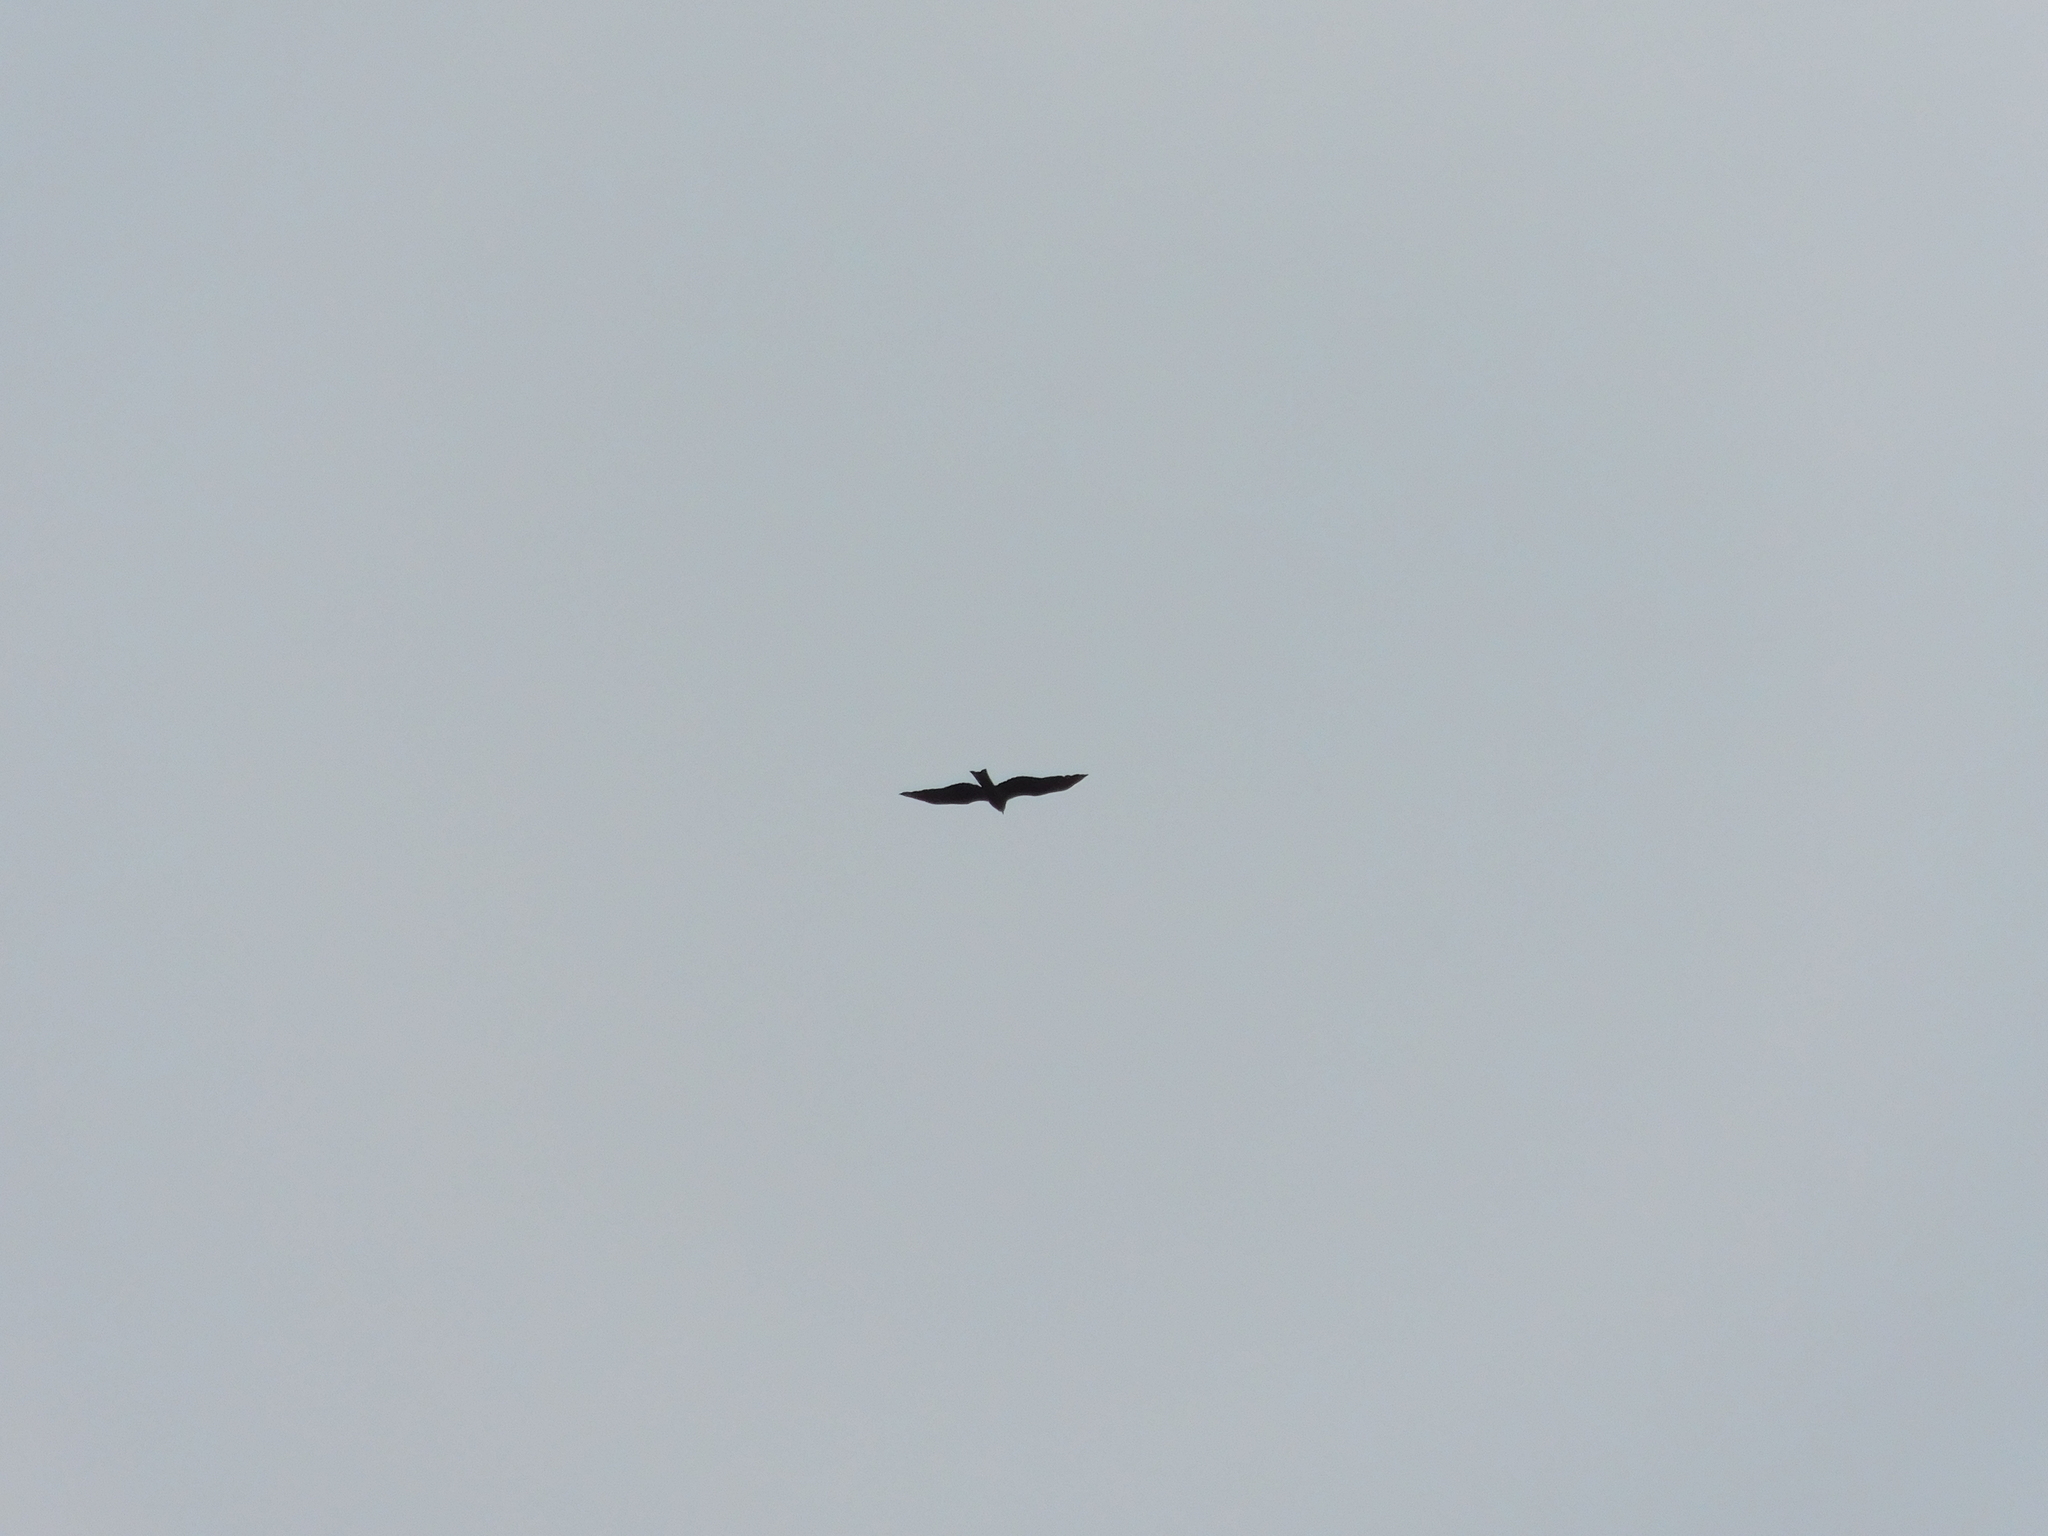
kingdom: Animalia
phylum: Chordata
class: Aves
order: Accipitriformes
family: Accipitridae
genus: Milvus
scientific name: Milvus migrans
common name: Black kite
